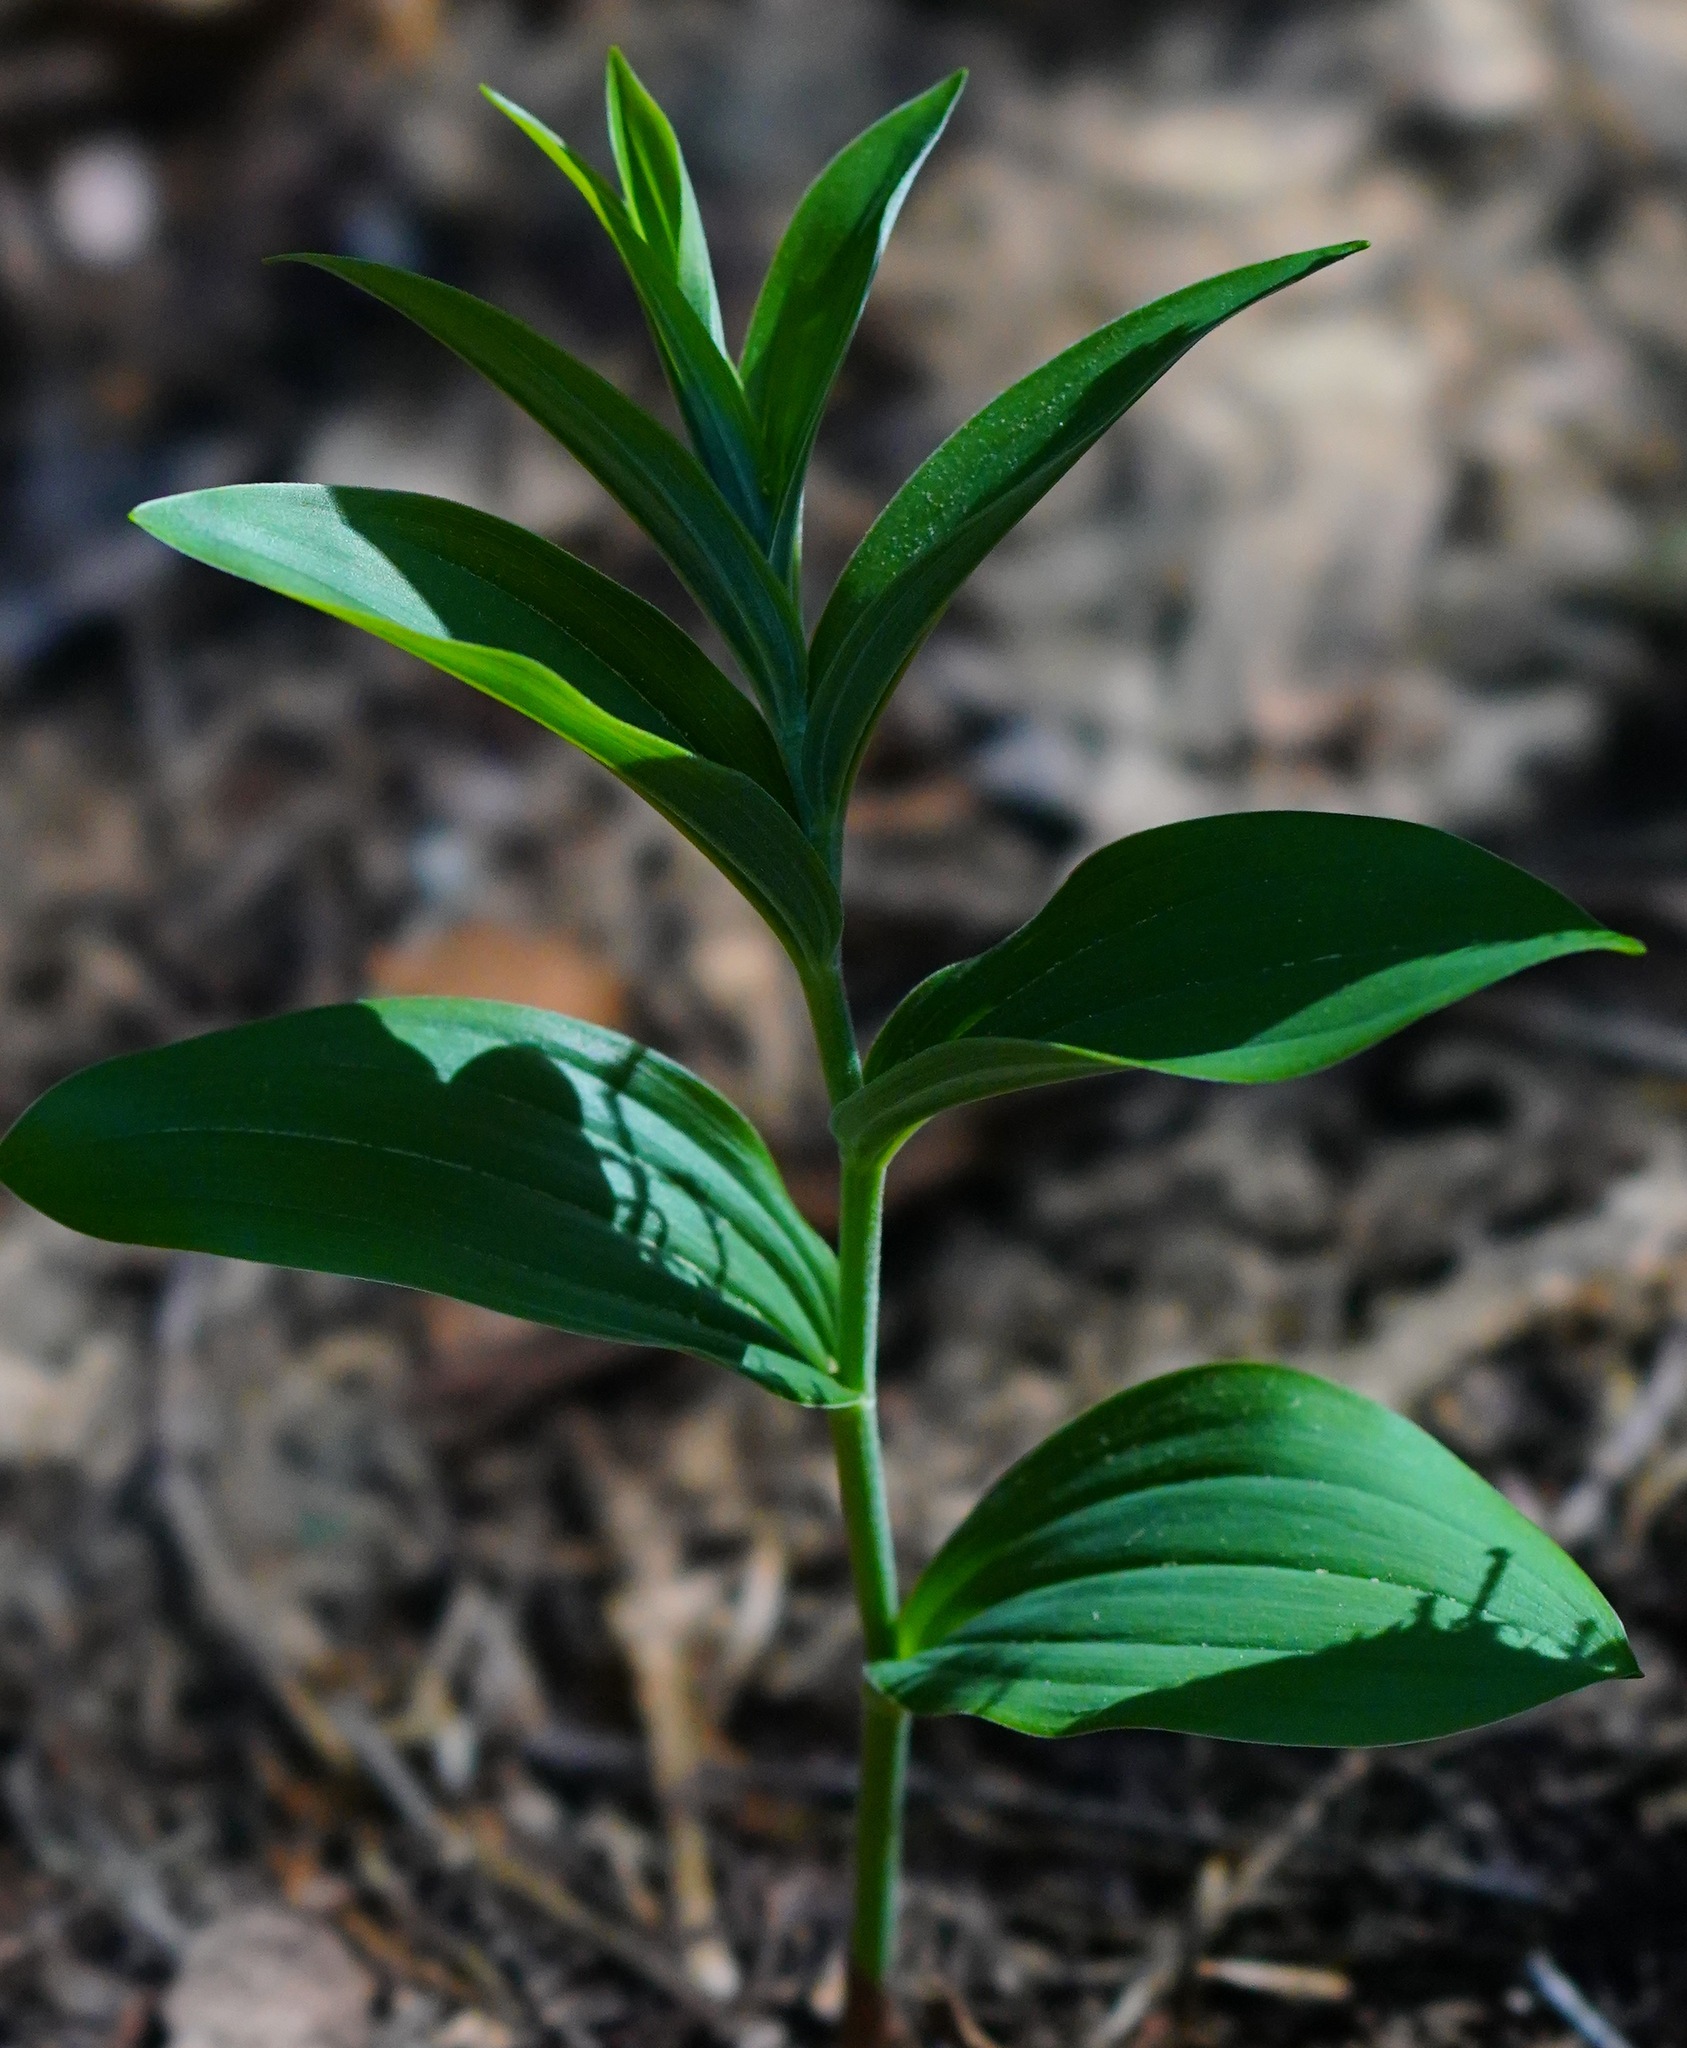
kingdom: Plantae
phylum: Tracheophyta
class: Liliopsida
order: Asparagales
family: Asparagaceae
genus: Maianthemum
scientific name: Maianthemum racemosum
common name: False spikenard
